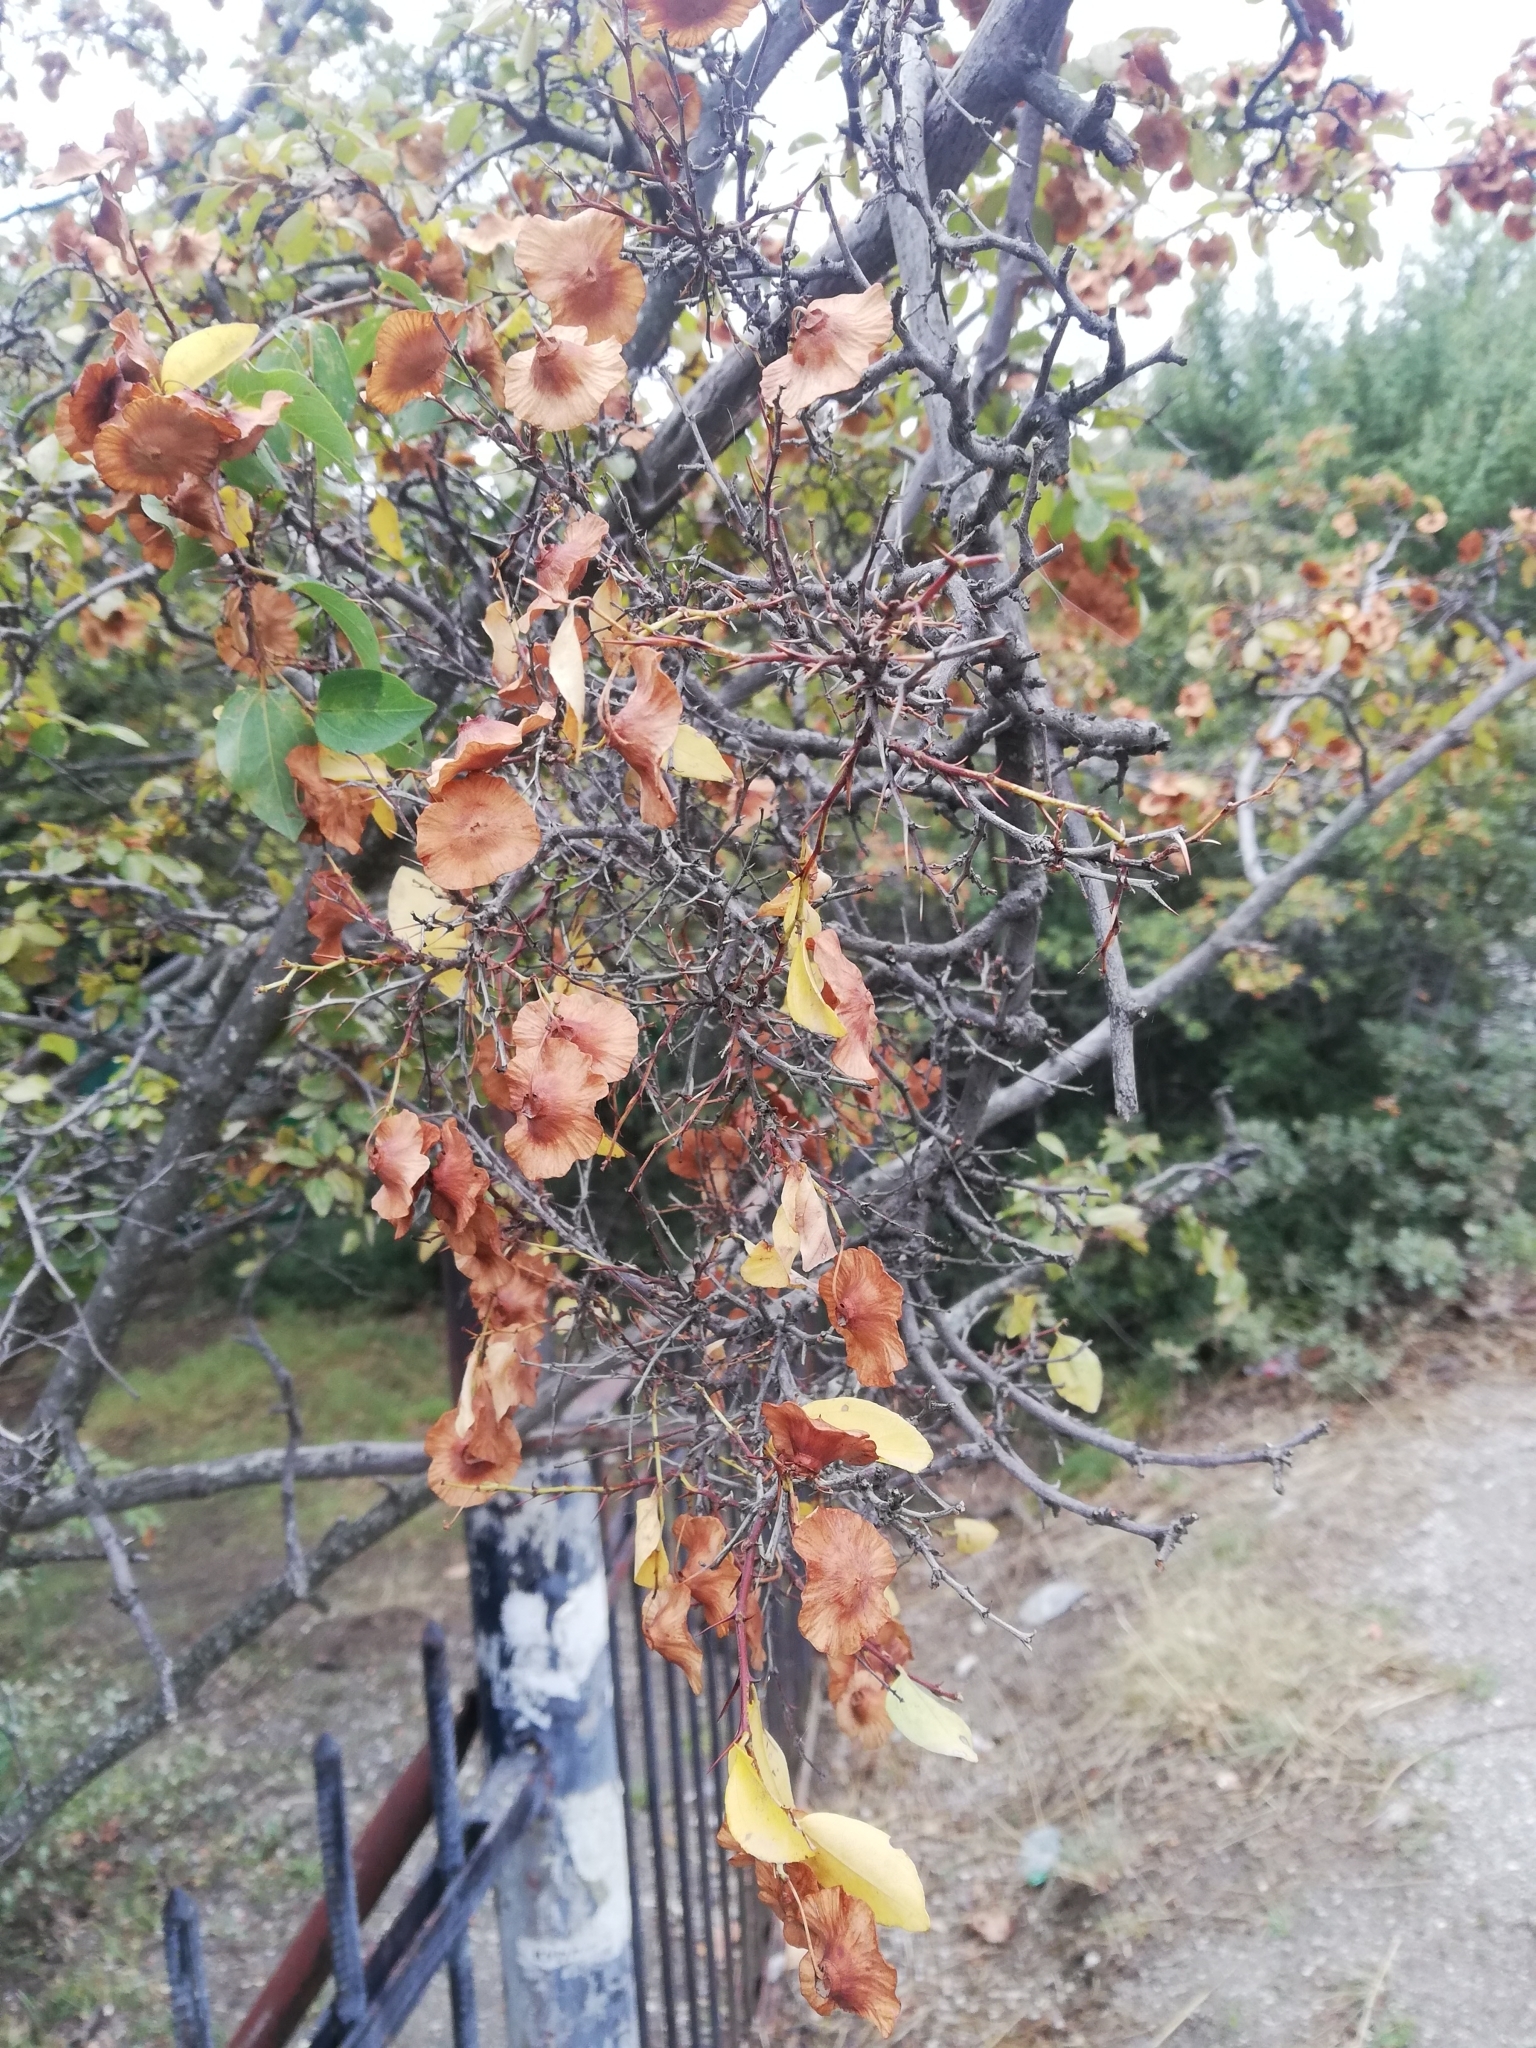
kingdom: Plantae
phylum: Tracheophyta
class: Magnoliopsida
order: Rosales
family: Rhamnaceae
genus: Paliurus
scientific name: Paliurus spina-christi
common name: Jeruselem thorn
